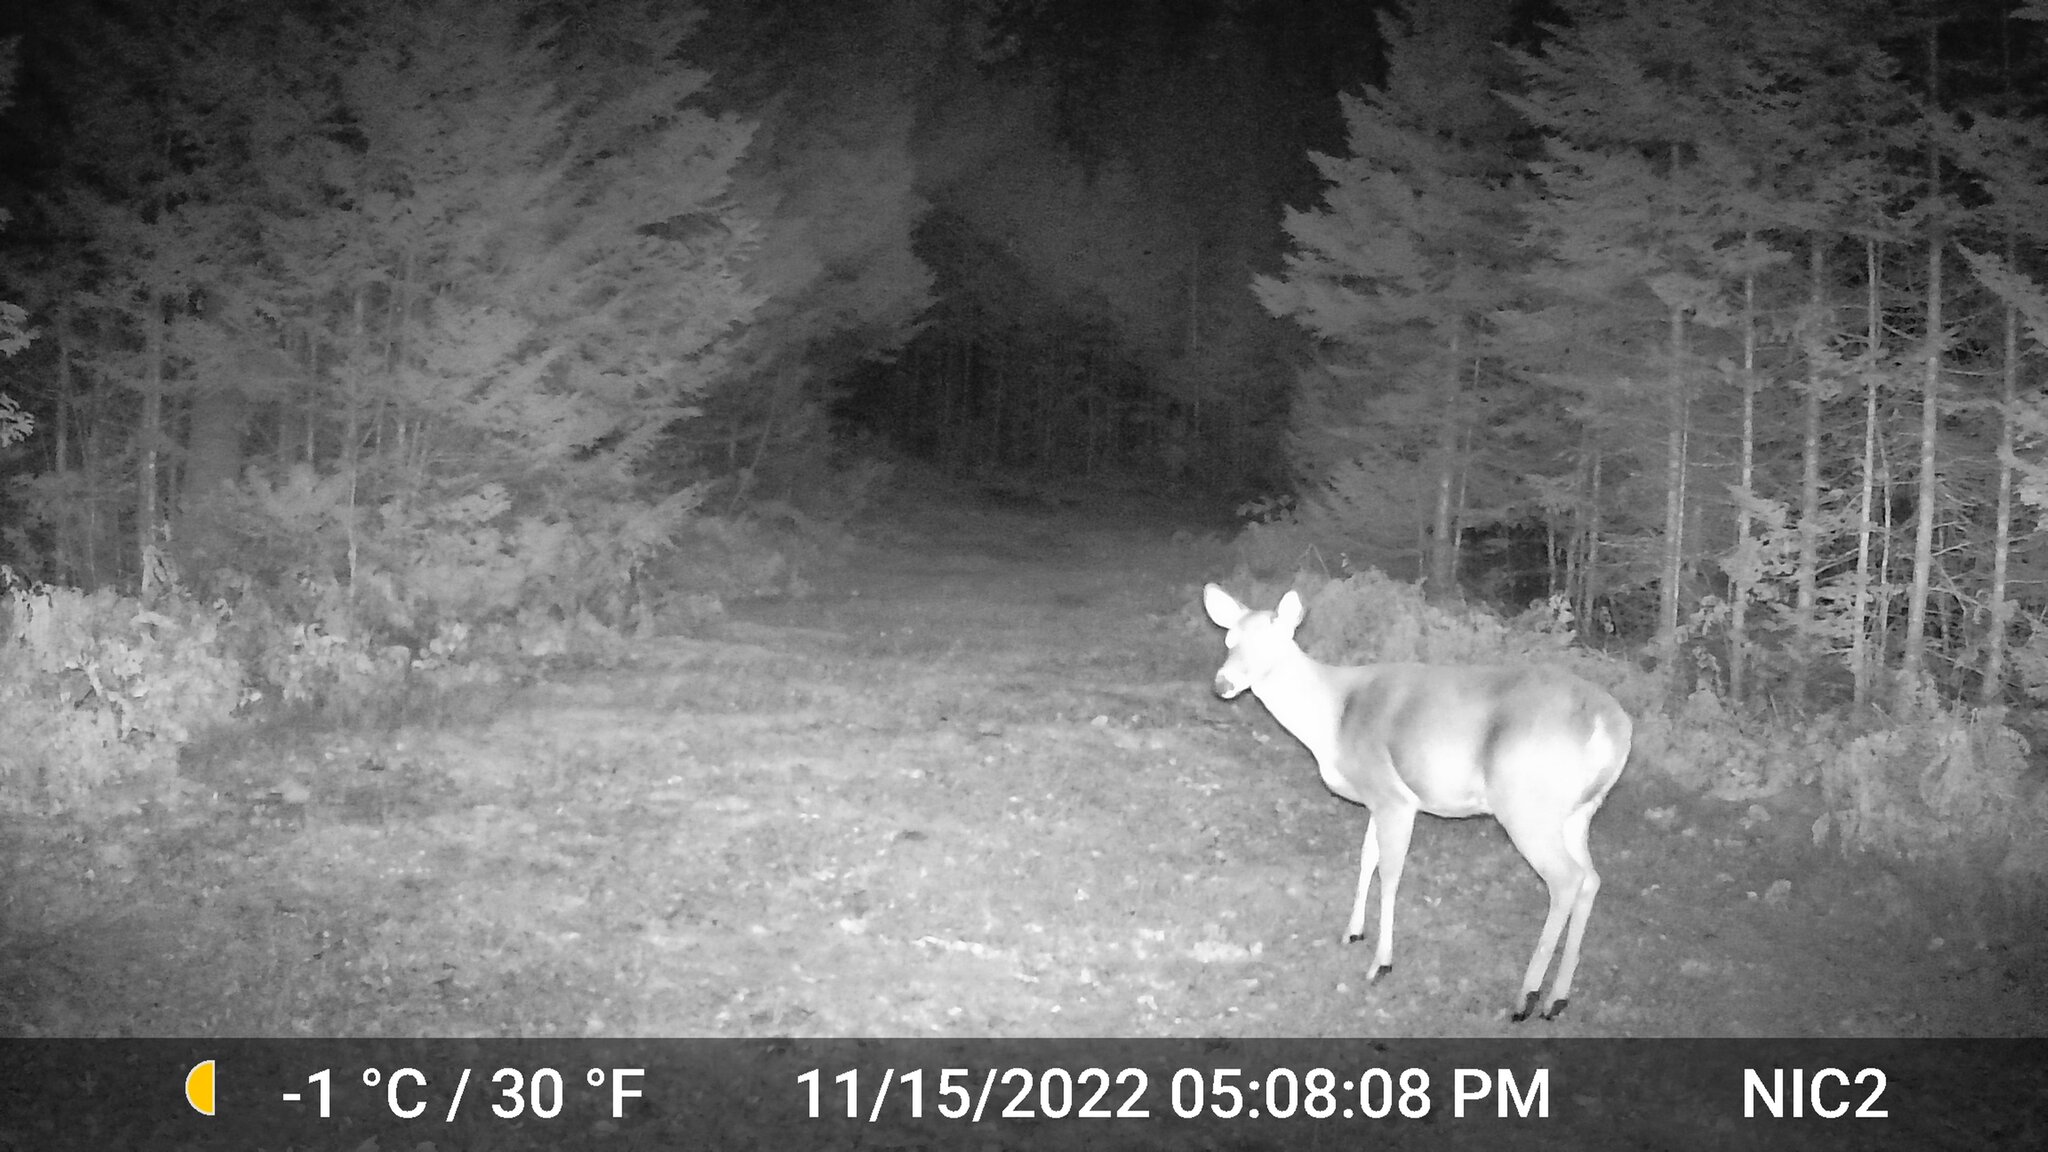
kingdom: Animalia
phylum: Chordata
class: Mammalia
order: Artiodactyla
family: Cervidae
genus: Odocoileus
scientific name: Odocoileus virginianus
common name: White-tailed deer
